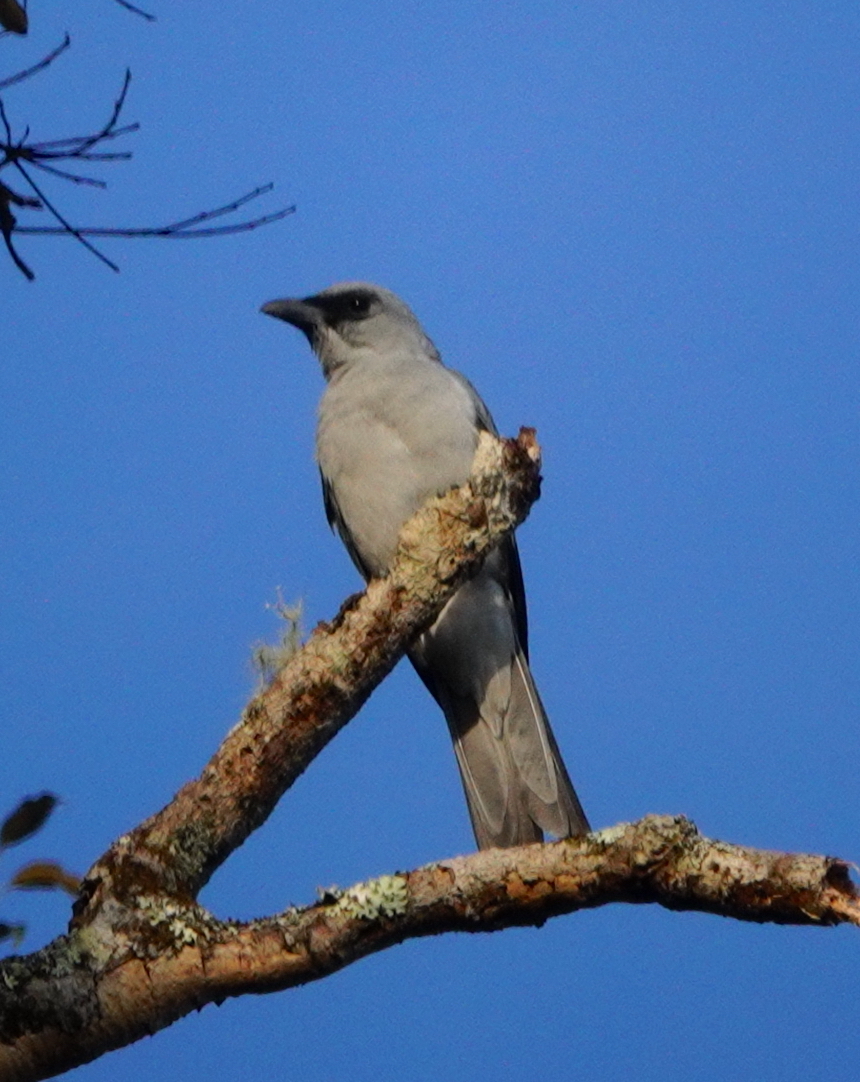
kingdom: Animalia
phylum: Chordata
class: Aves
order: Passeriformes
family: Campephagidae
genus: Coracina
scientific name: Coracina fortis
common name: Buru cuckooshrike
